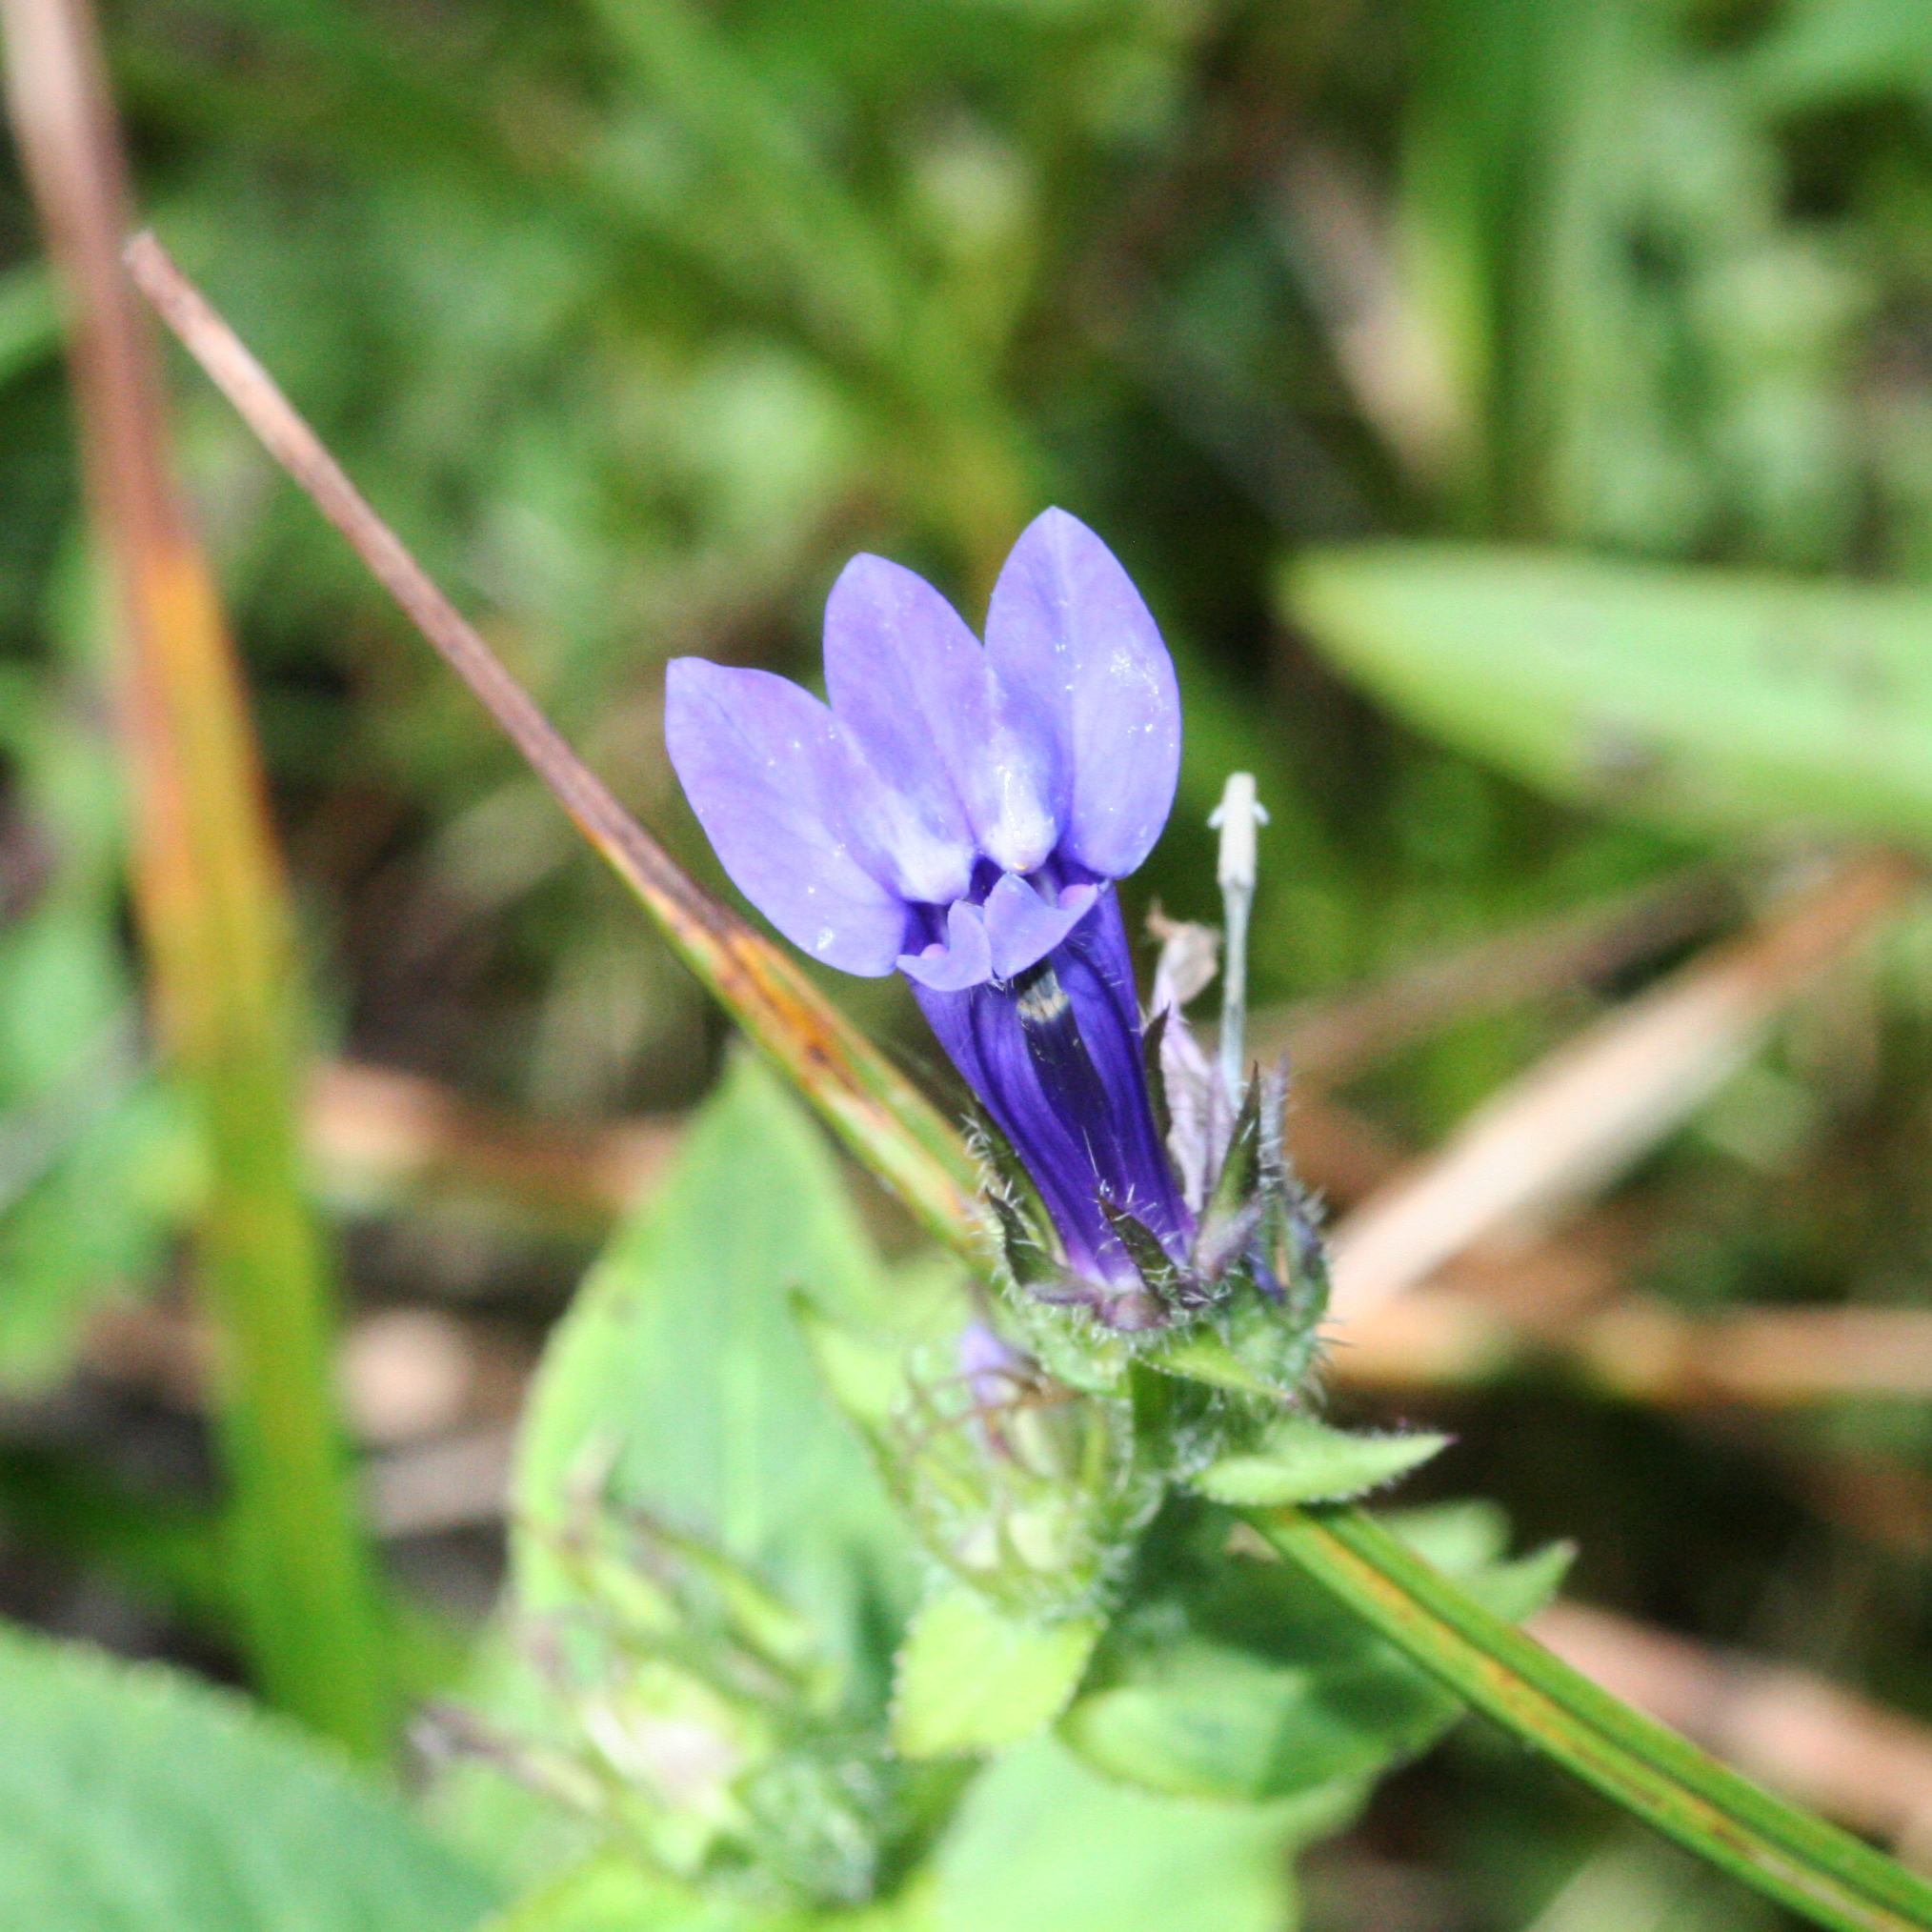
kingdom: Plantae
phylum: Tracheophyta
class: Magnoliopsida
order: Asterales
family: Campanulaceae
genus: Lobelia
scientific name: Lobelia siphilitica
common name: Great lobelia
